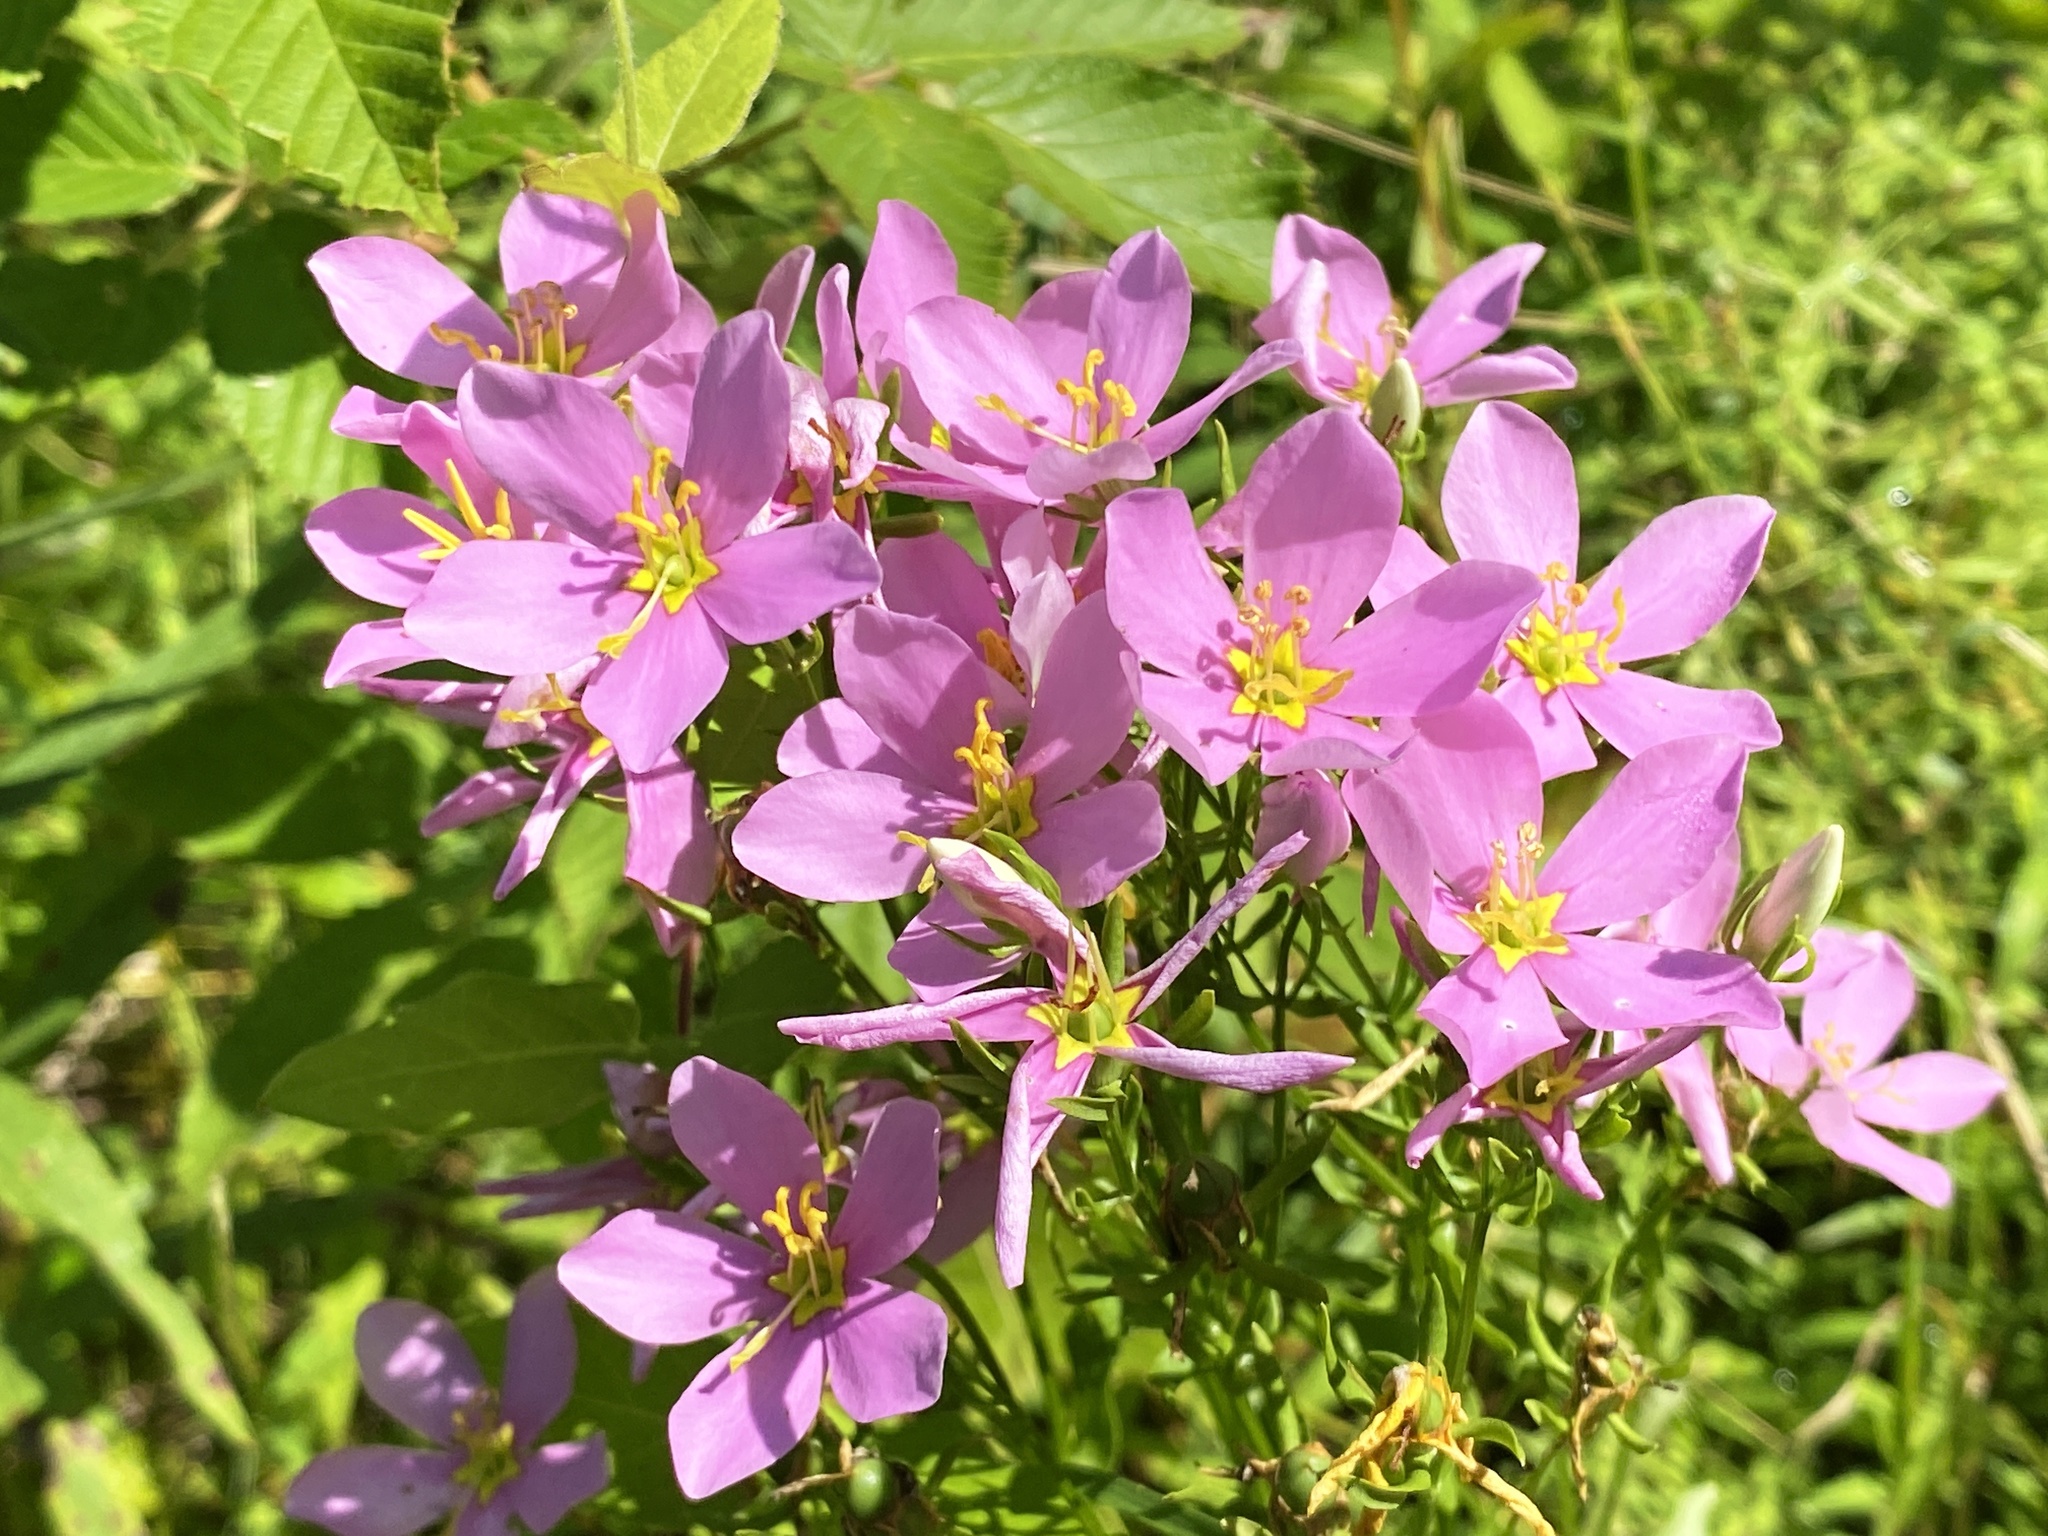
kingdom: Plantae
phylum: Tracheophyta
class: Magnoliopsida
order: Gentianales
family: Gentianaceae
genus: Sabatia
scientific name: Sabatia angularis
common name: Rose-pink
